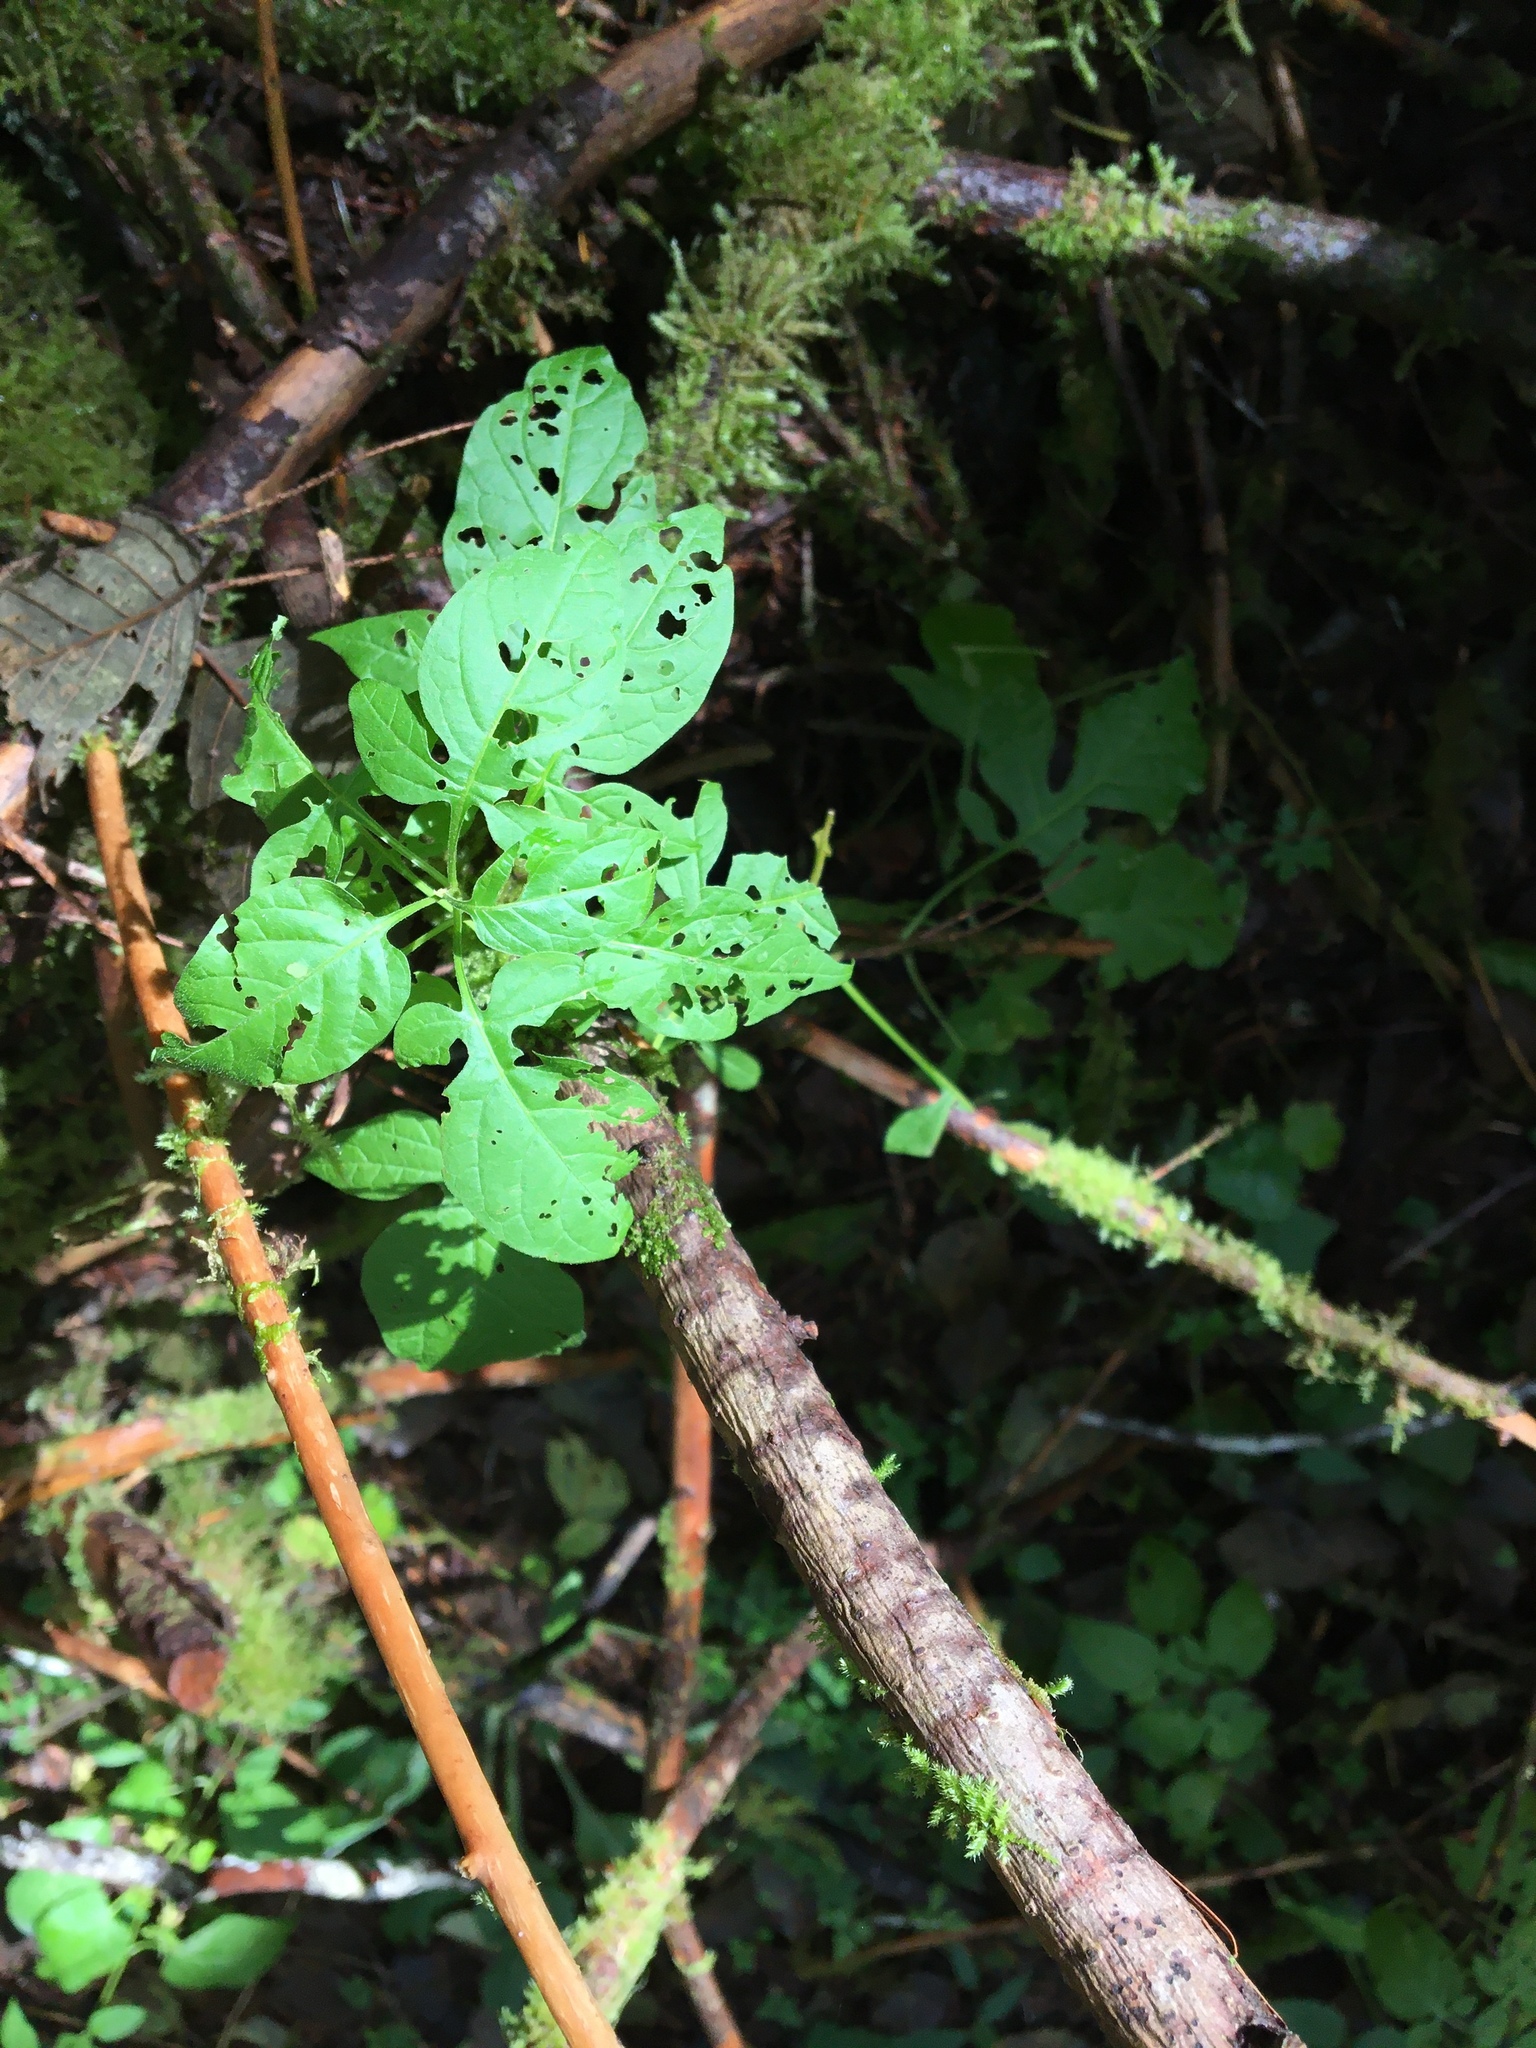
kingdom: Plantae
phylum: Tracheophyta
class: Magnoliopsida
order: Solanales
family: Solanaceae
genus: Solanum
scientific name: Solanum dulcamara
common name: Climbing nightshade
